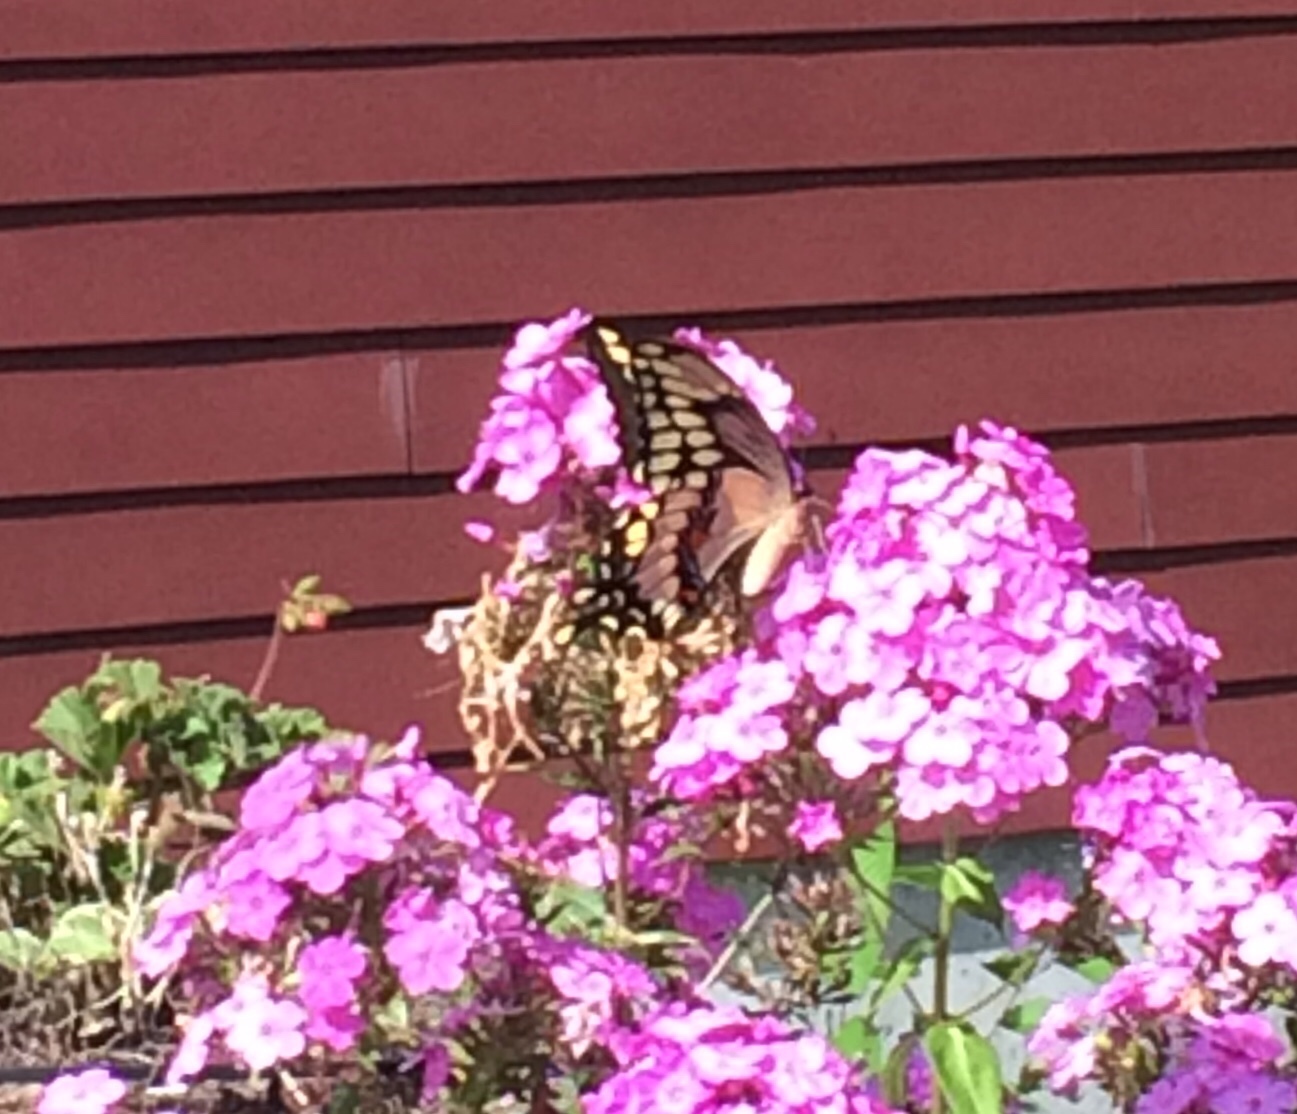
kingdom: Animalia
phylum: Arthropoda
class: Insecta
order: Lepidoptera
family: Papilionidae
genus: Papilio
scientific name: Papilio cresphontes
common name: Giant swallowtail
